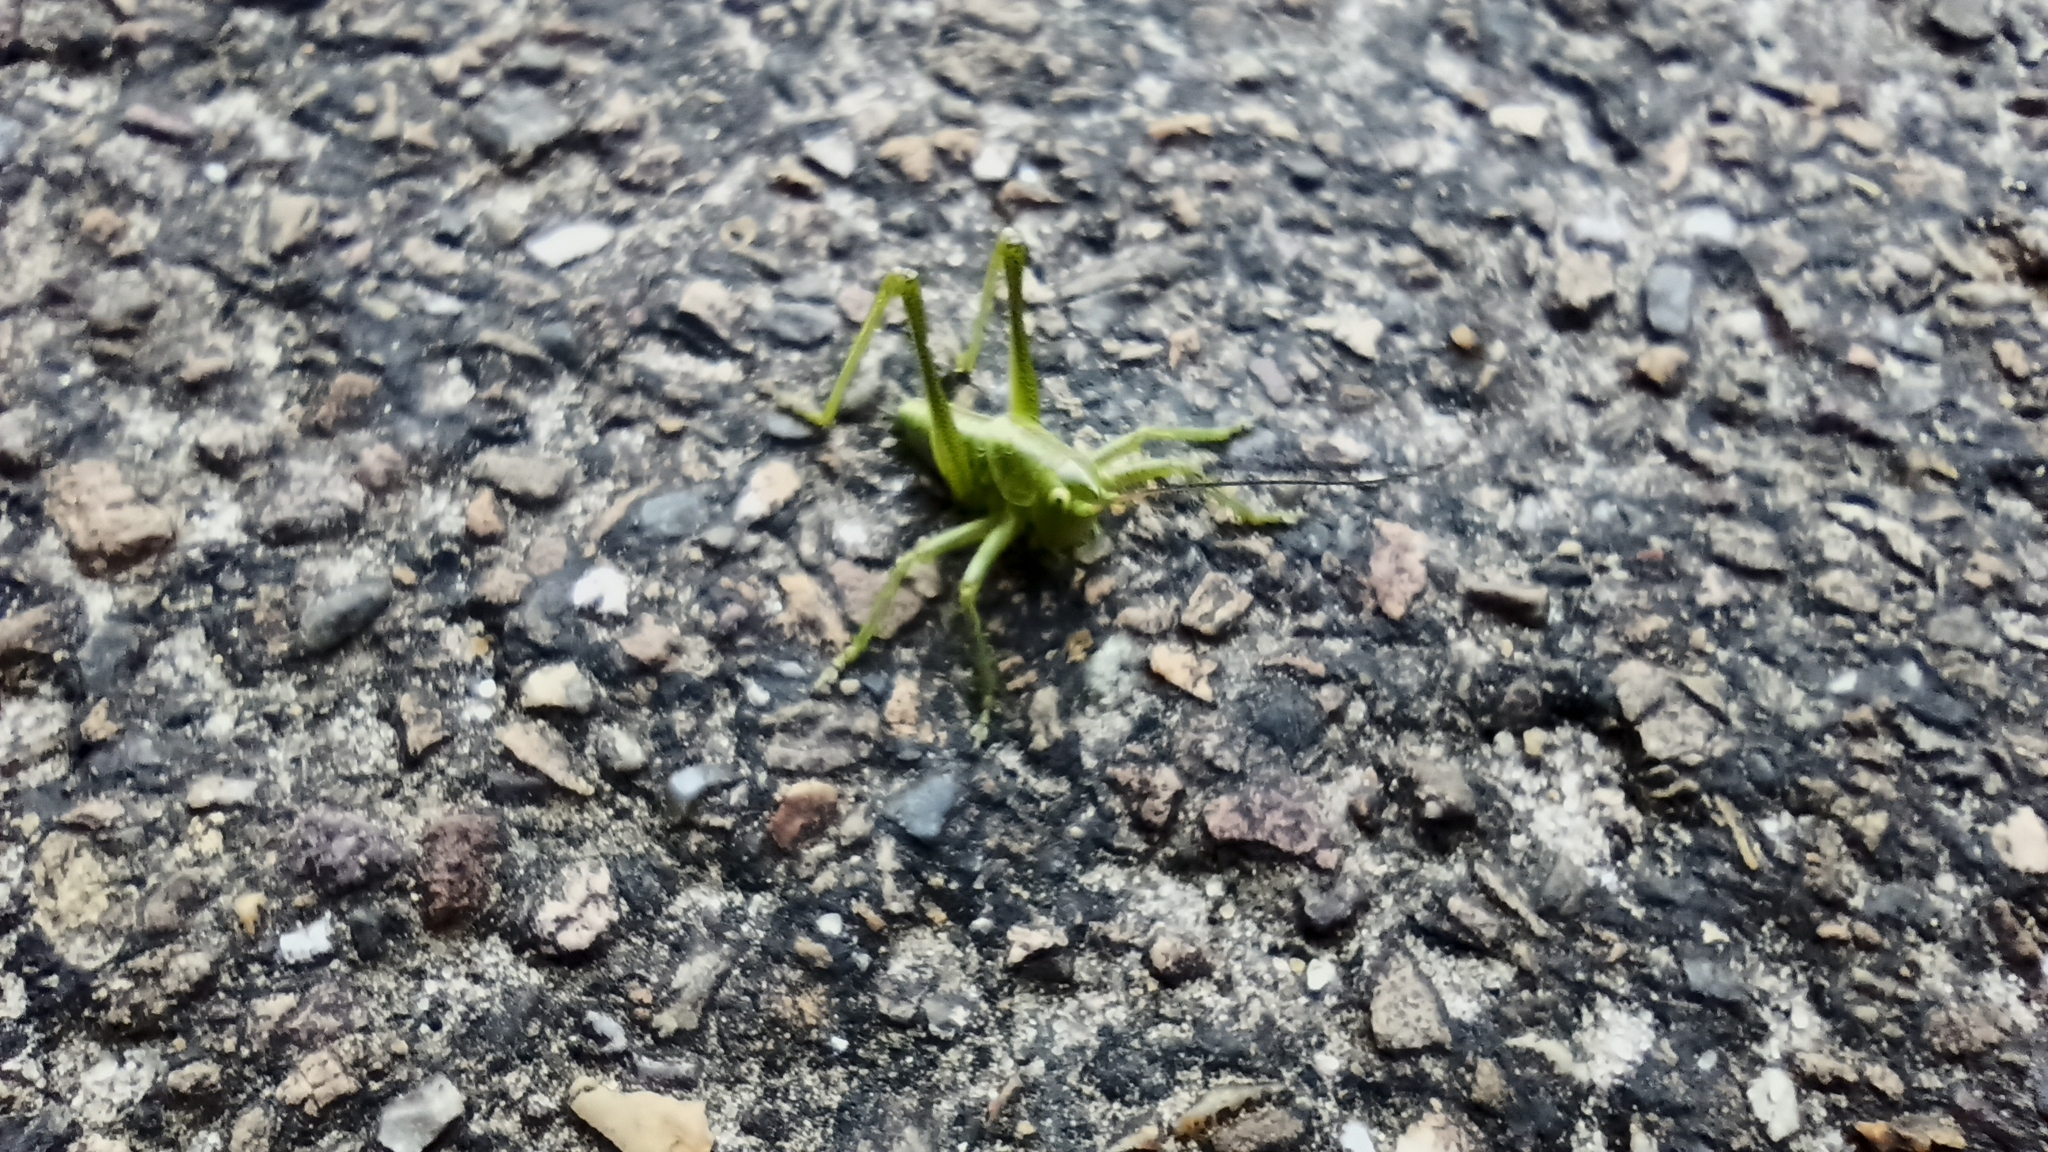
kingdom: Animalia
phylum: Arthropoda
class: Insecta
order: Orthoptera
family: Tettigoniidae
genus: Tettigonia
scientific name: Tettigonia viridissima
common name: Great green bush-cricket
